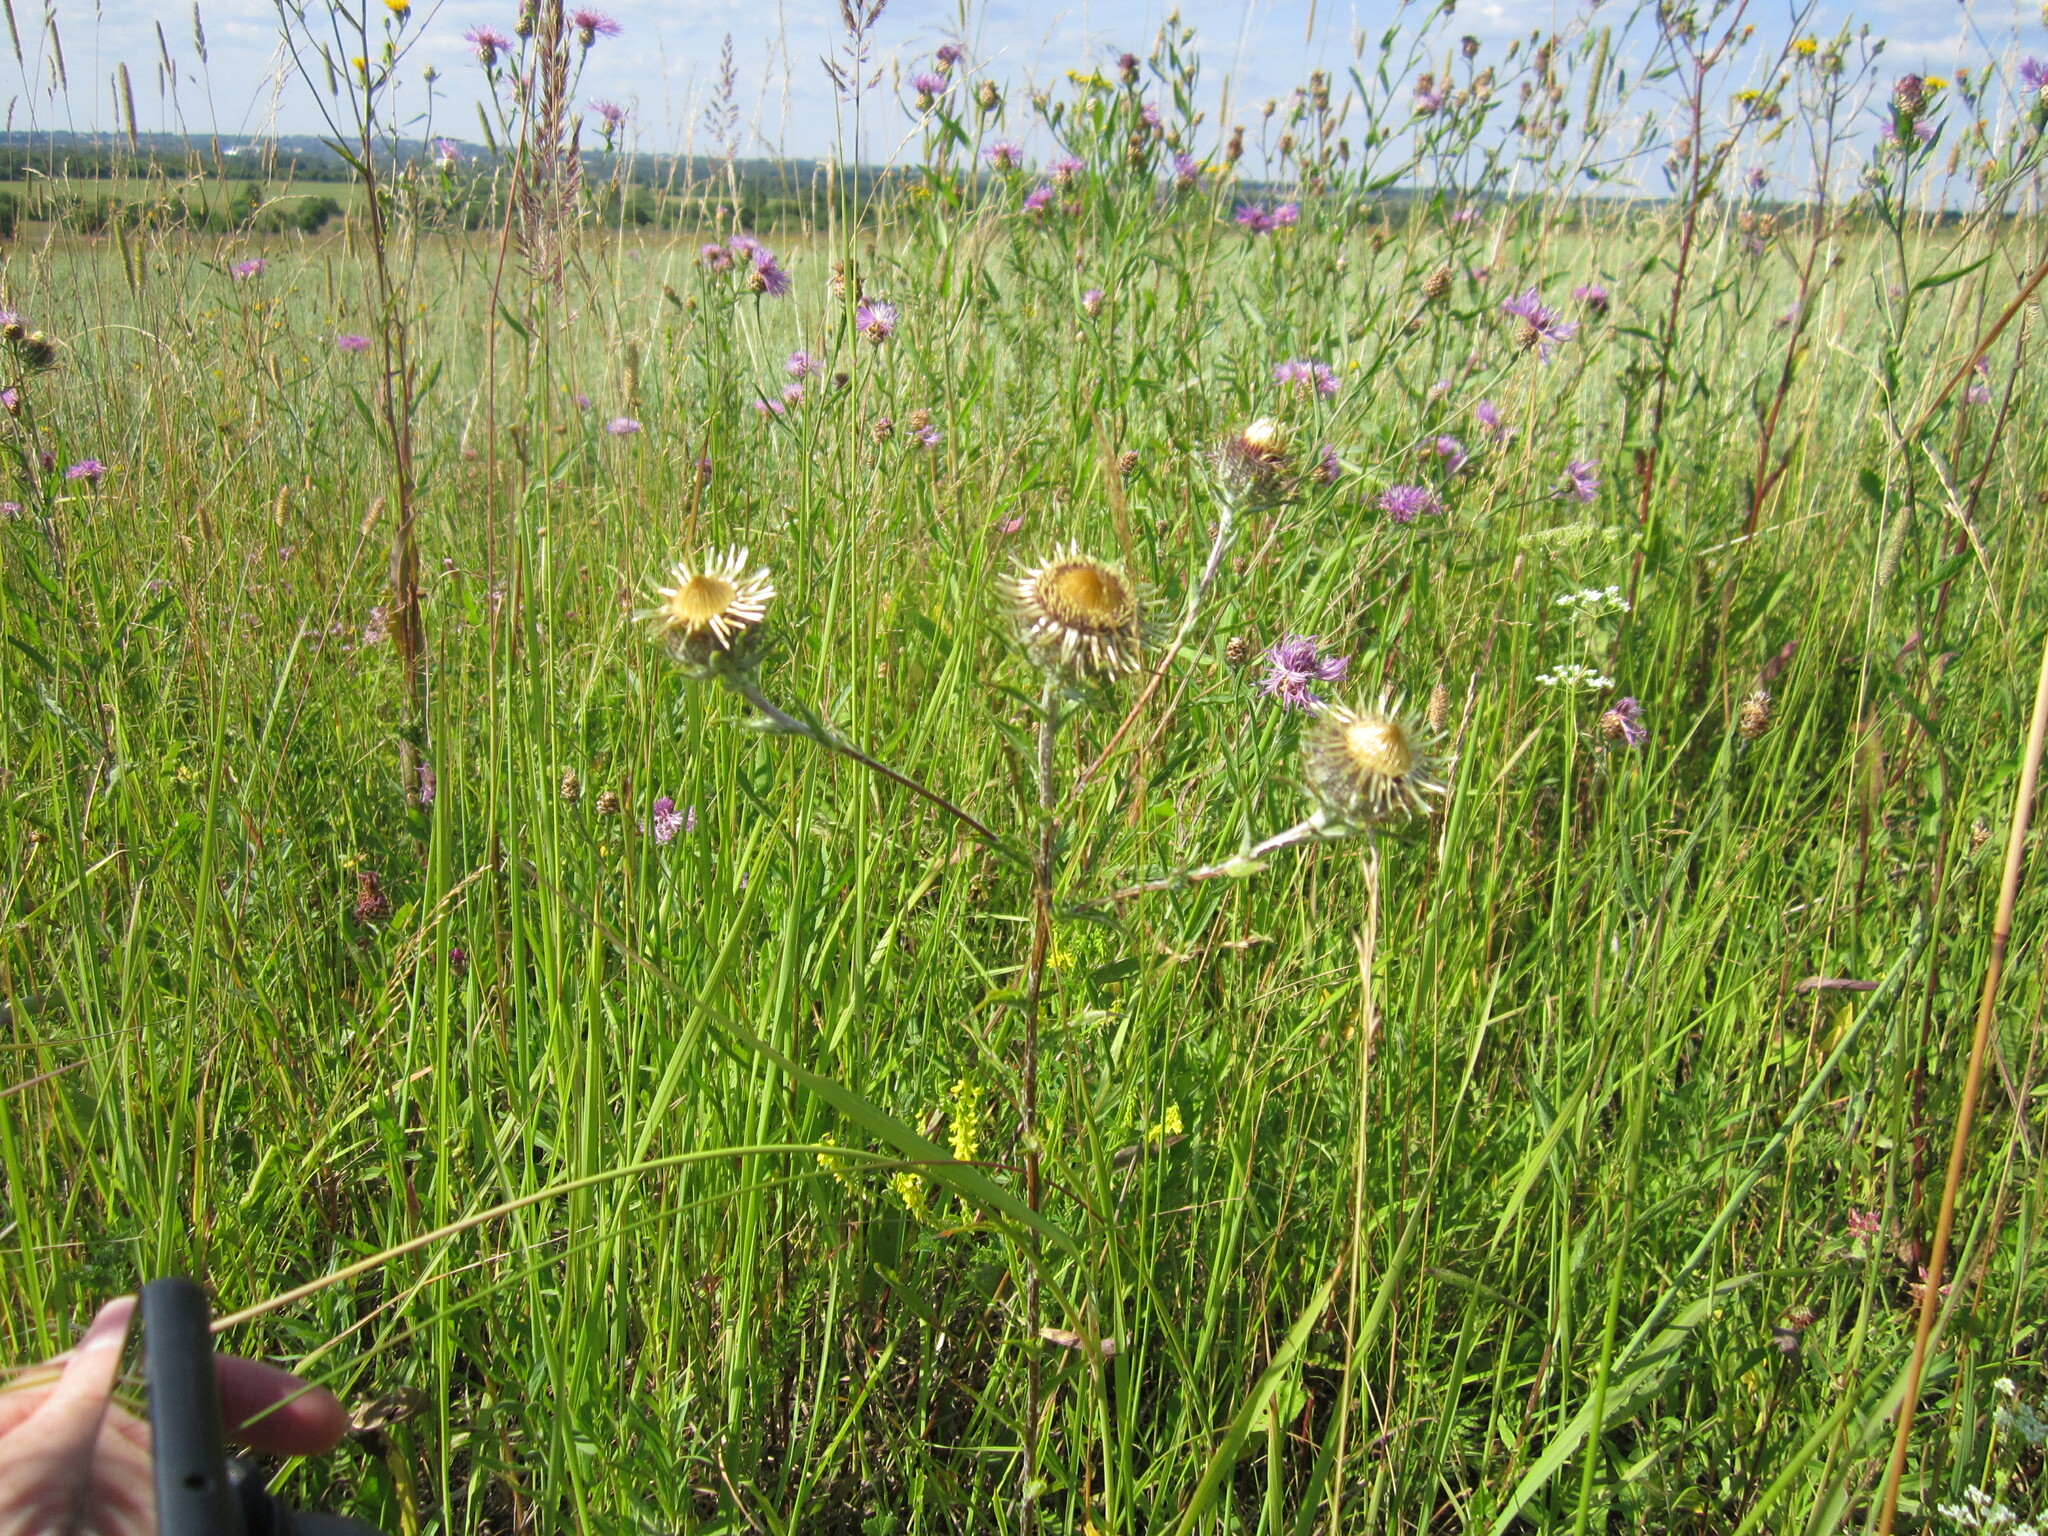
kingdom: Plantae
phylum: Tracheophyta
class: Magnoliopsida
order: Asterales
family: Asteraceae
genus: Carlina
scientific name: Carlina biebersteinii
